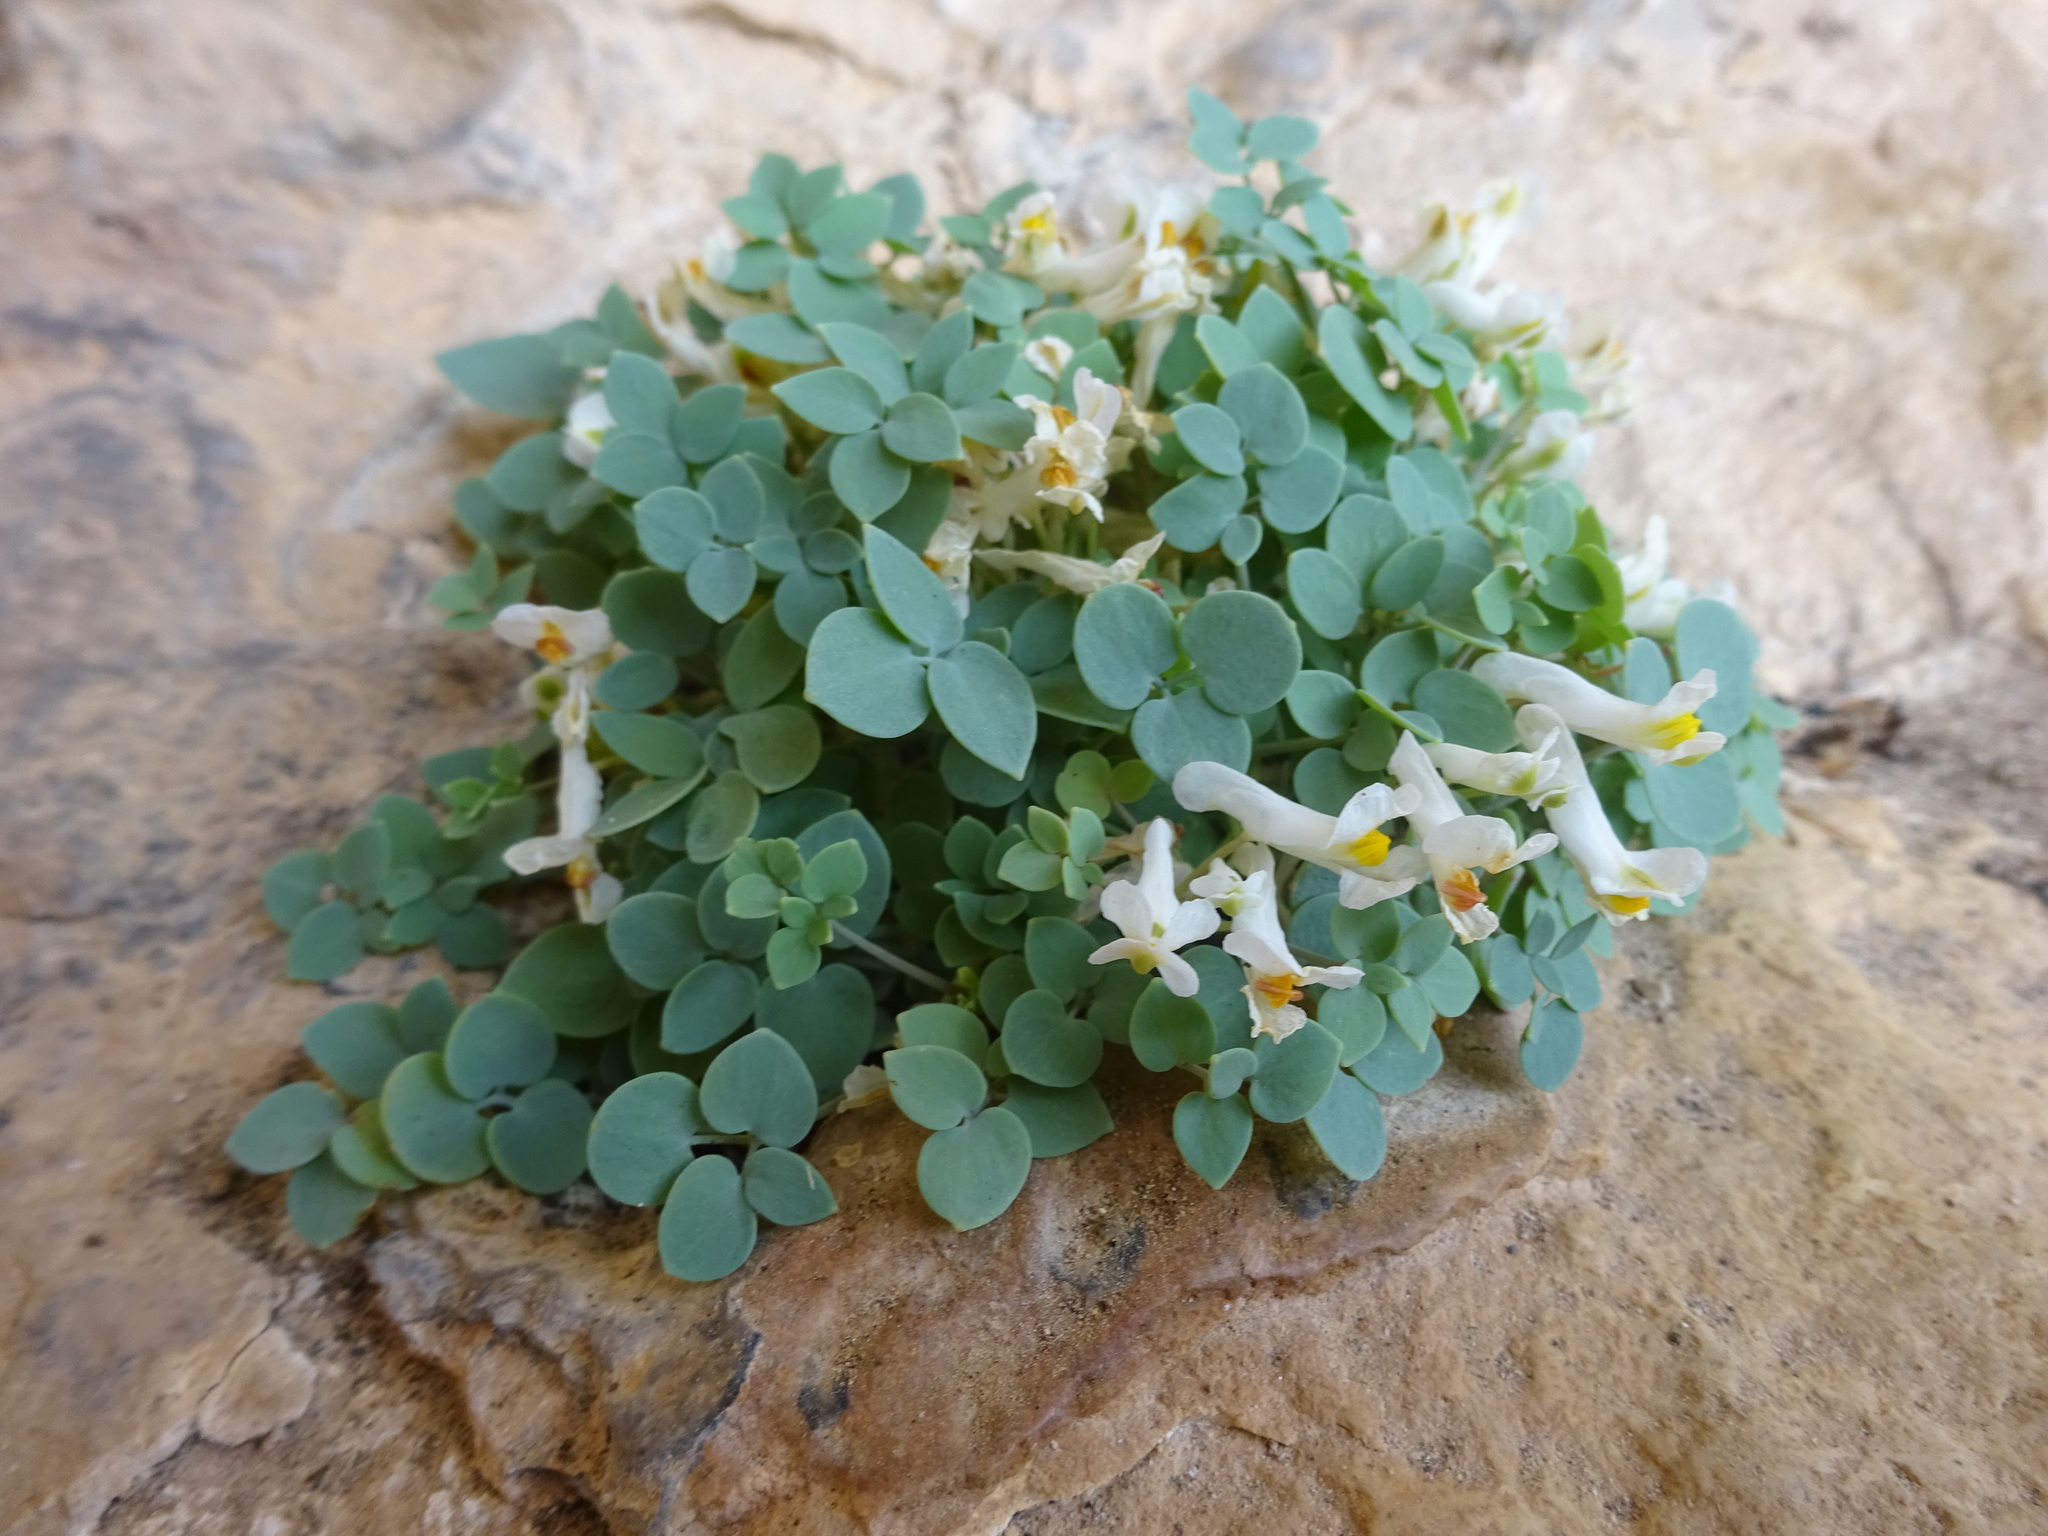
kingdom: Plantae
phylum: Tracheophyta
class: Magnoliopsida
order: Ranunculales
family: Papaveraceae
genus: Sarcocapnos
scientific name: Sarcocapnos enneaphylla
